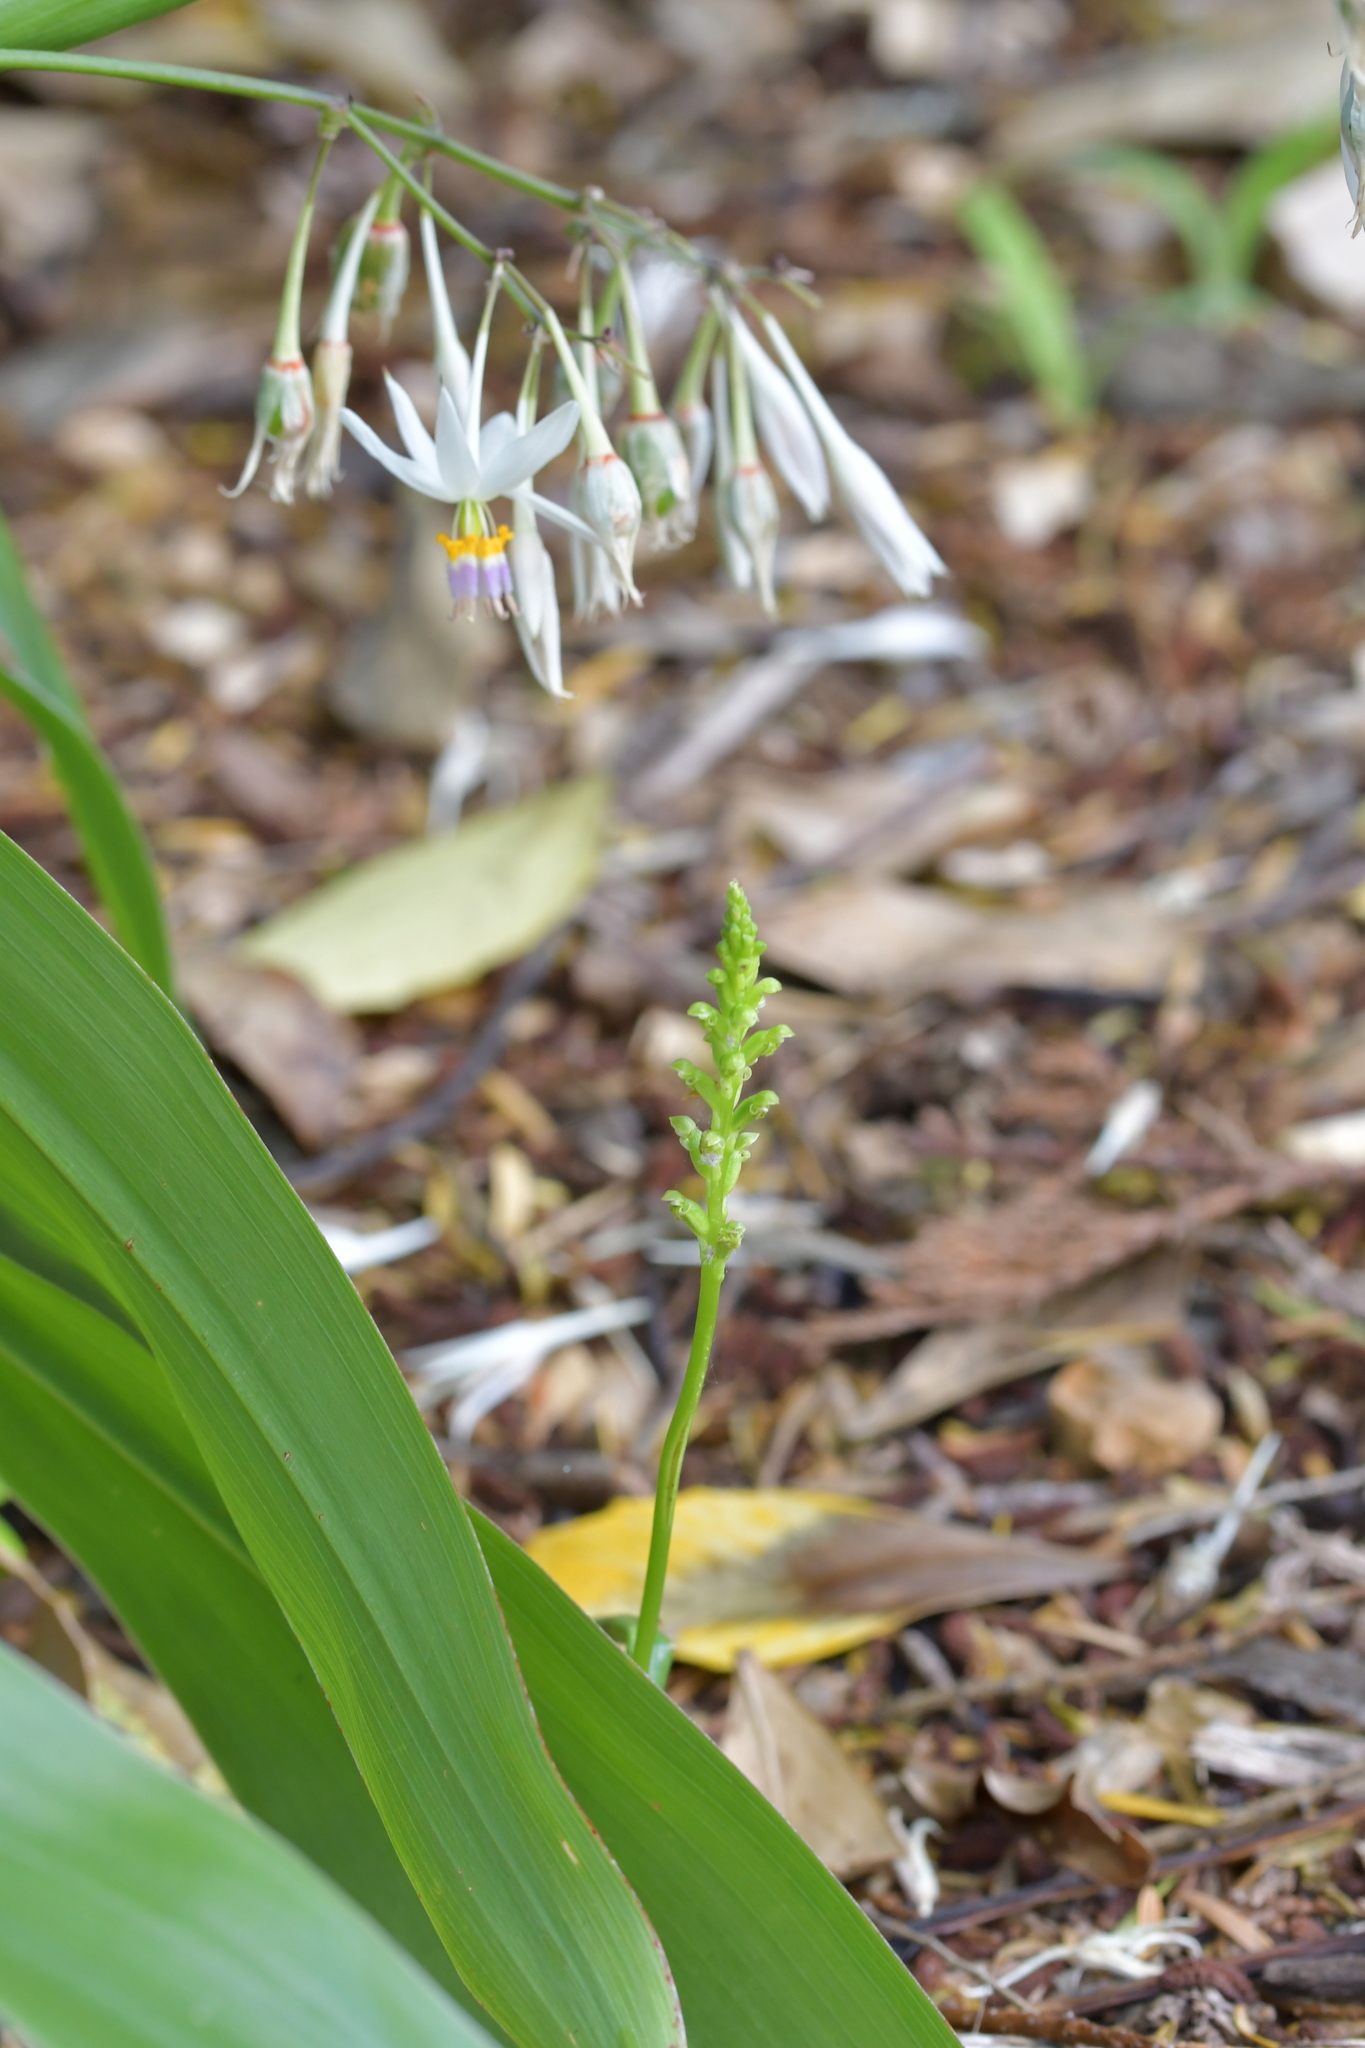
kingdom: Plantae
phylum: Tracheophyta
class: Liliopsida
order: Asparagales
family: Orchidaceae
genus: Microtis
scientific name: Microtis unifolia
